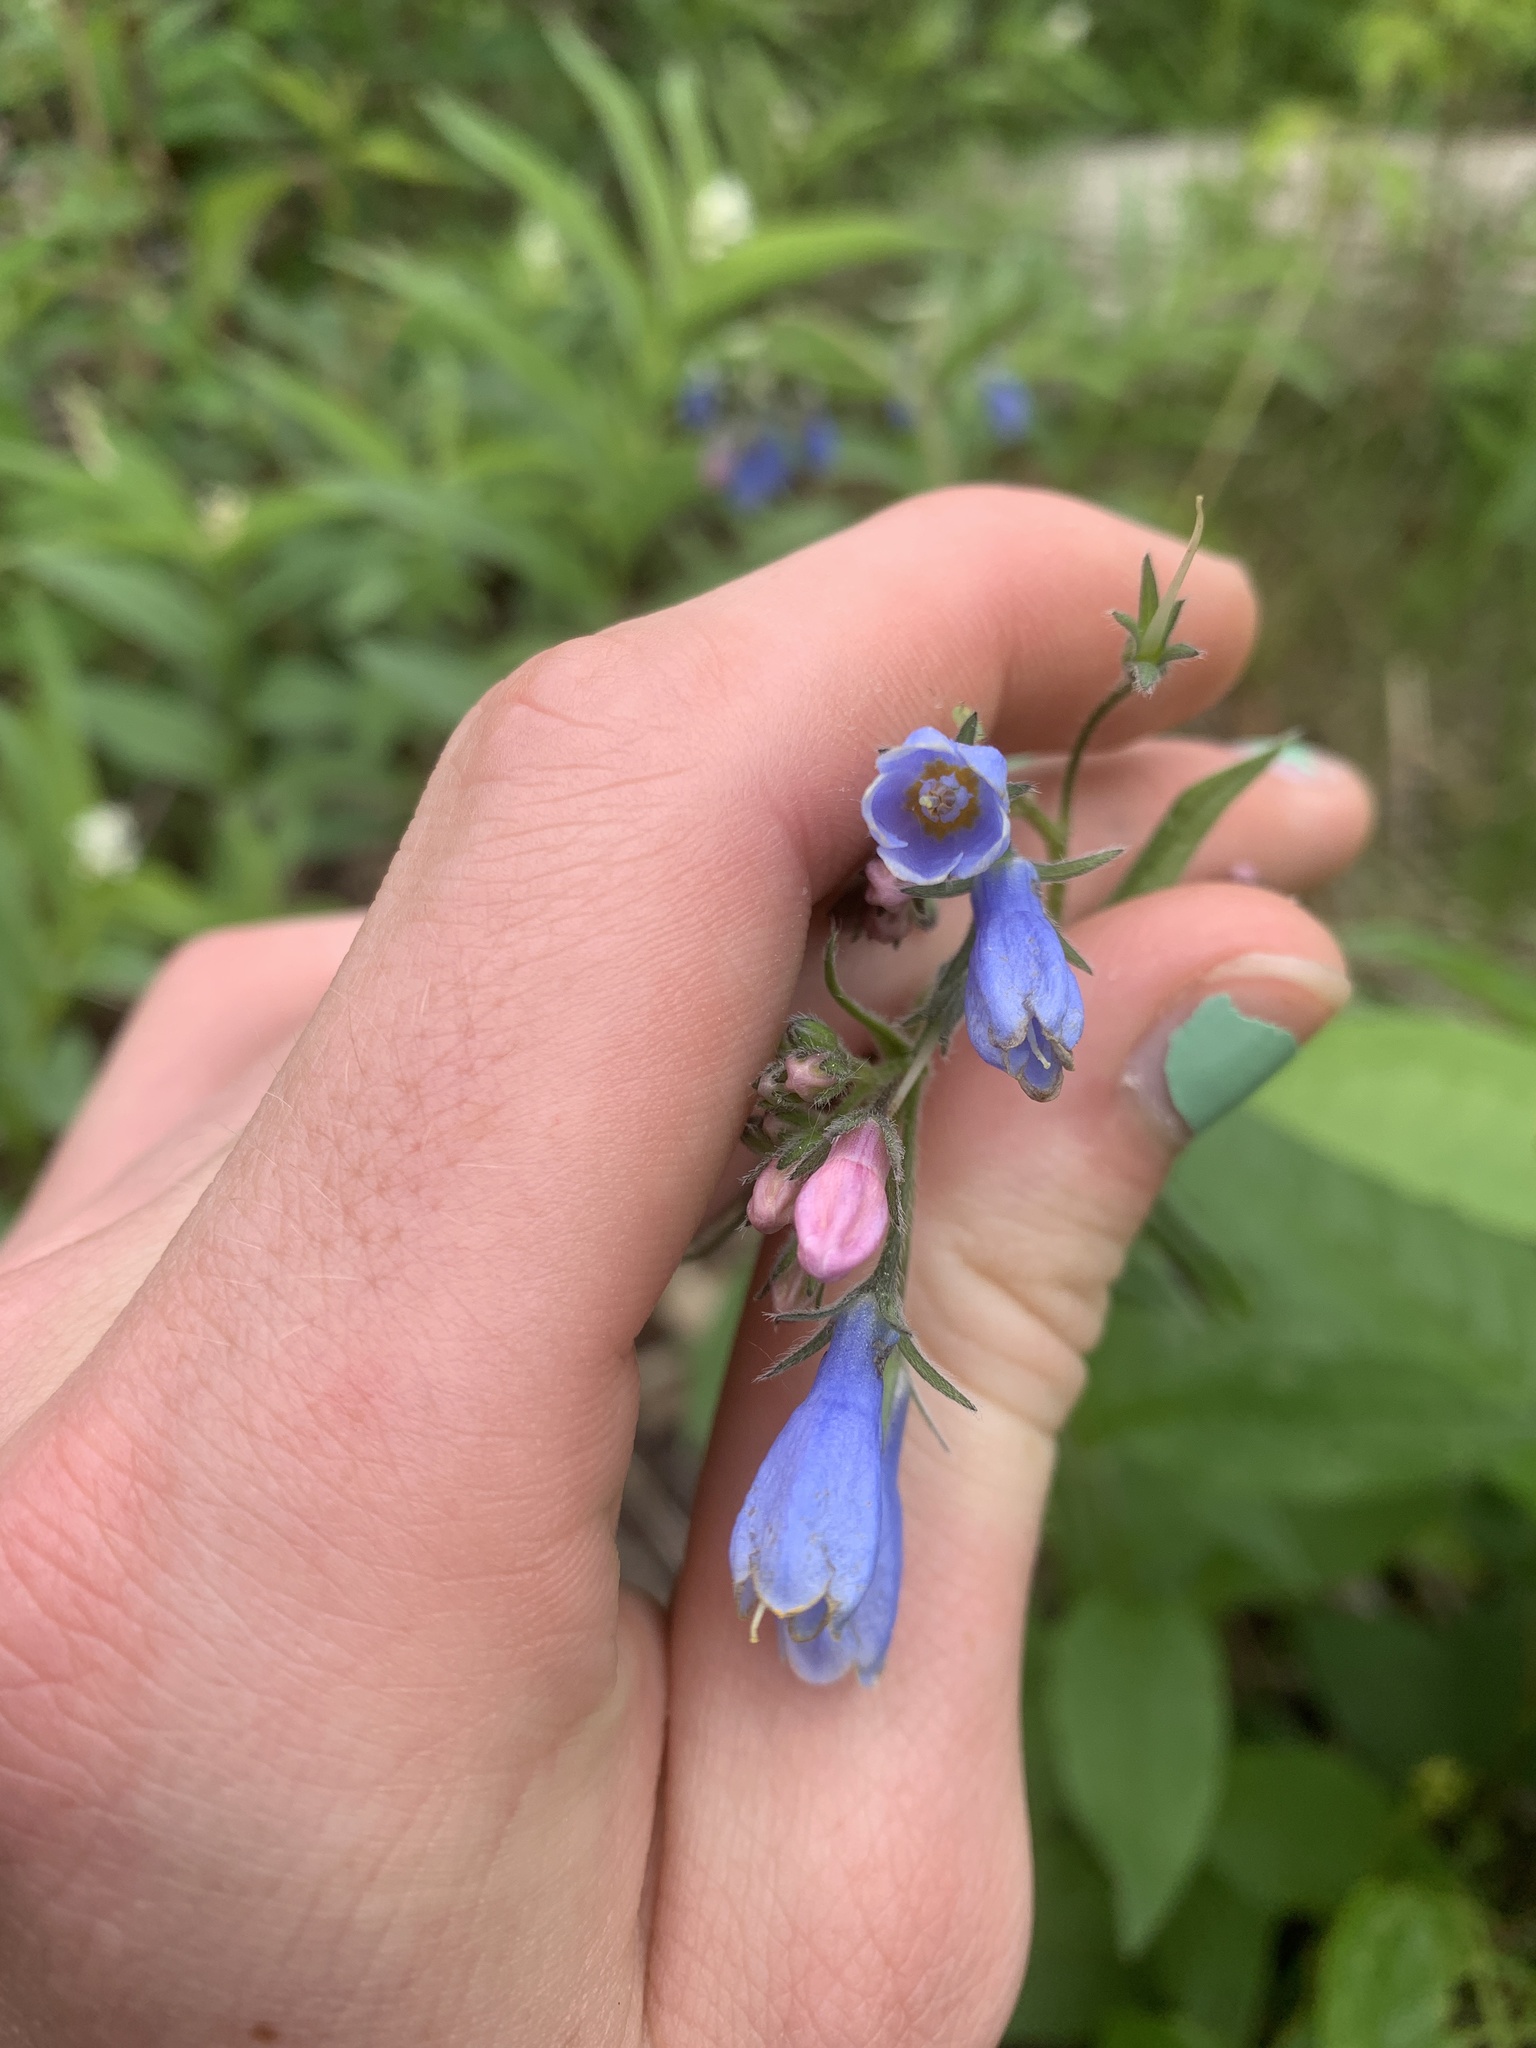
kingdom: Plantae
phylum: Tracheophyta
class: Magnoliopsida
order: Boraginales
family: Boraginaceae
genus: Mertensia
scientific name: Mertensia paniculata
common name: Panicled bluebells
